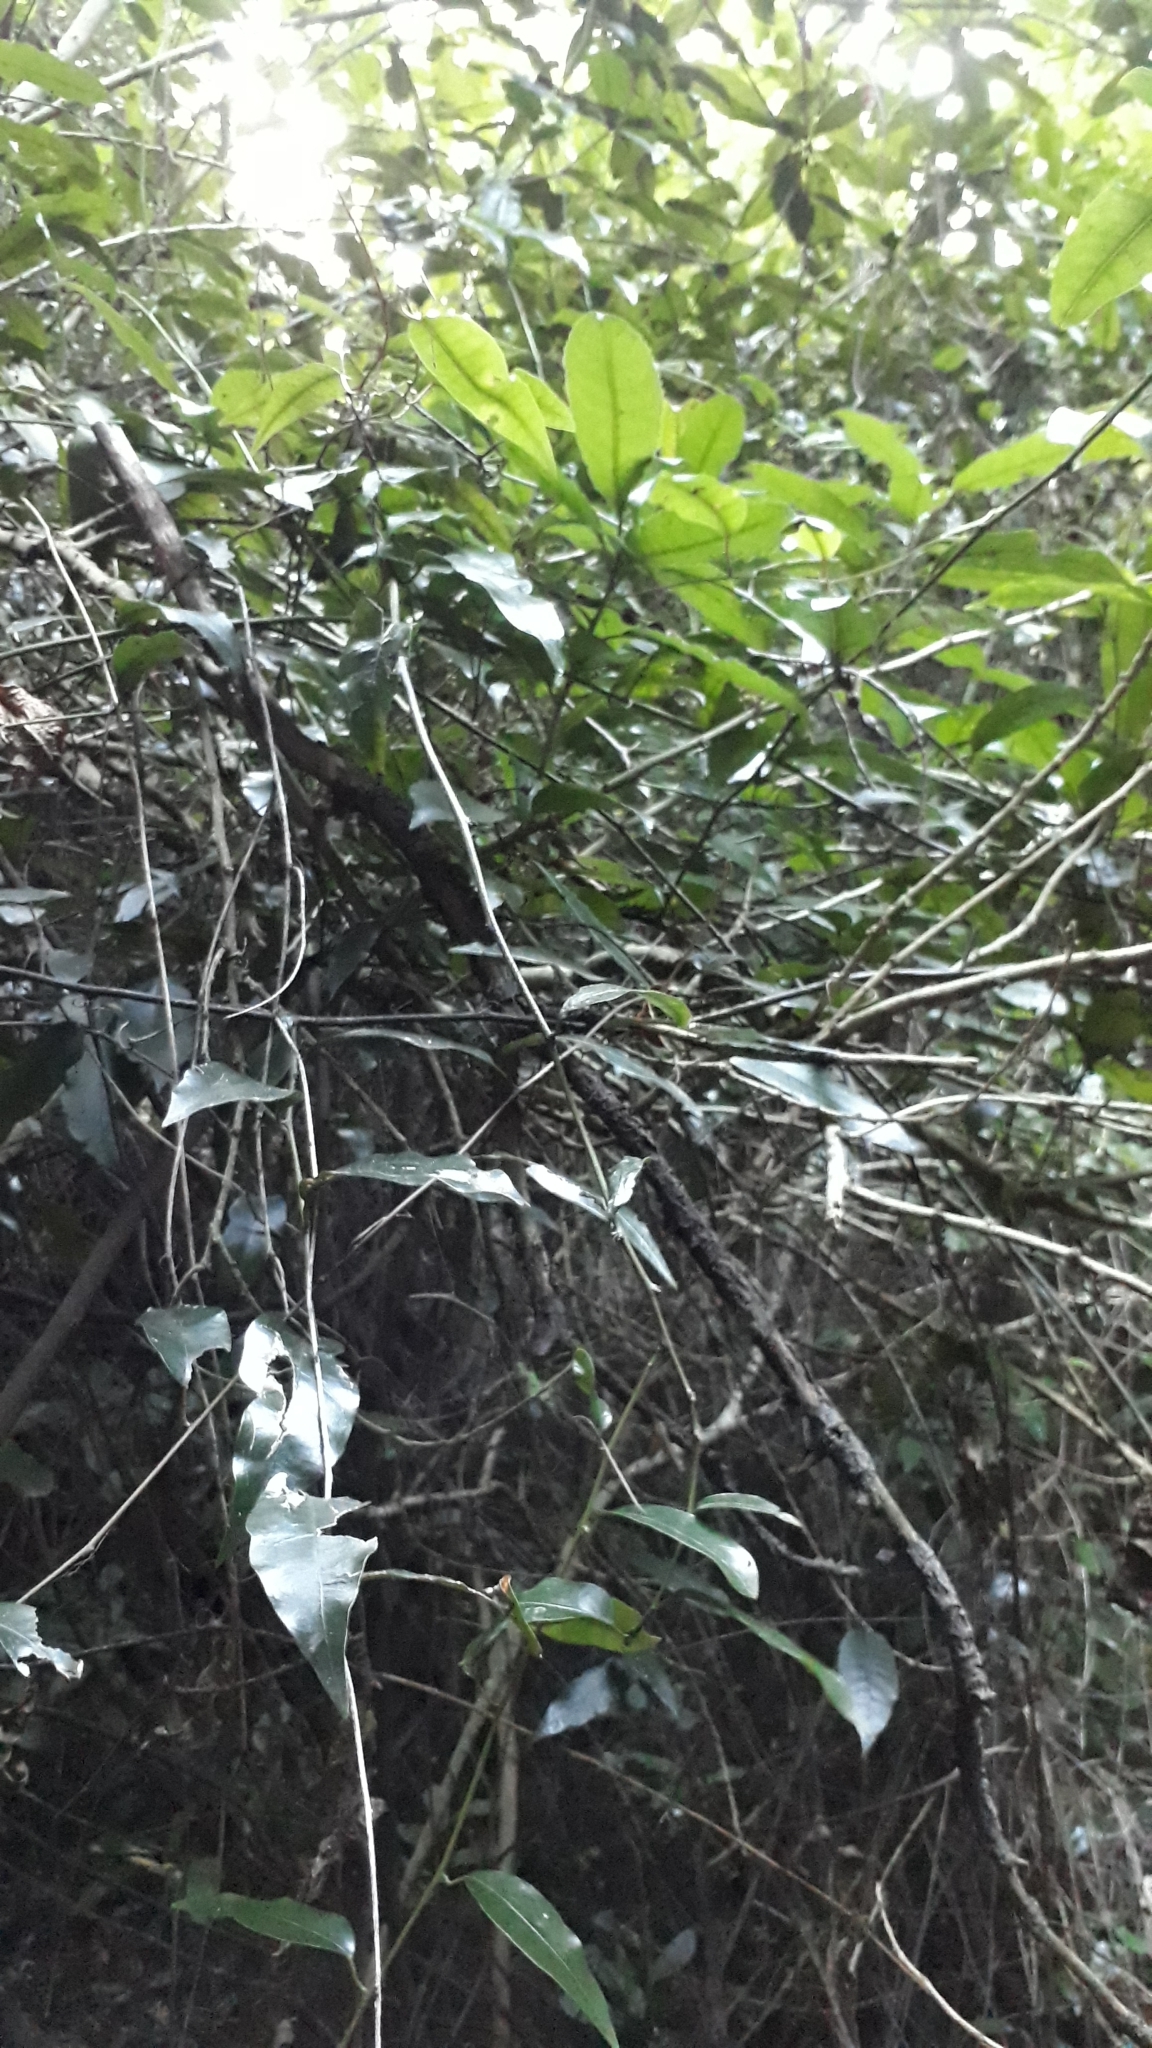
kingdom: Plantae
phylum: Tracheophyta
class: Magnoliopsida
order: Malpighiales
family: Passifloraceae
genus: Passiflora
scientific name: Passiflora tetrandra
